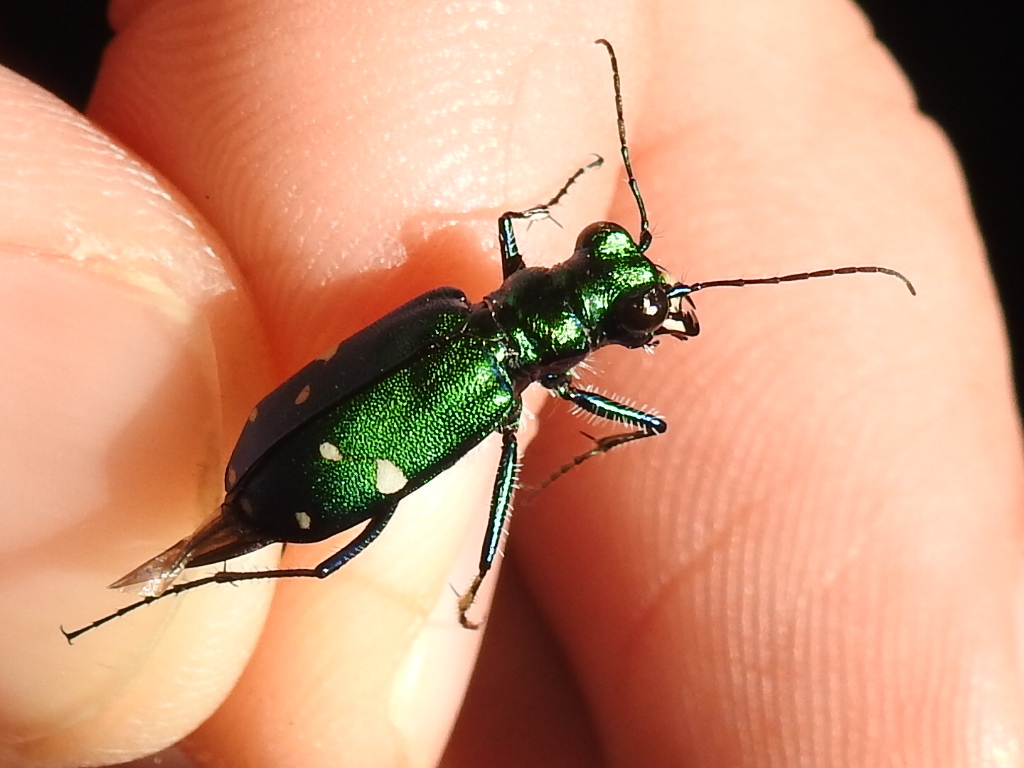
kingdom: Animalia
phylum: Arthropoda
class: Insecta
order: Coleoptera
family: Carabidae
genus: Cicindela
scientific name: Cicindela sexguttata
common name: Six-spotted tiger beetle
